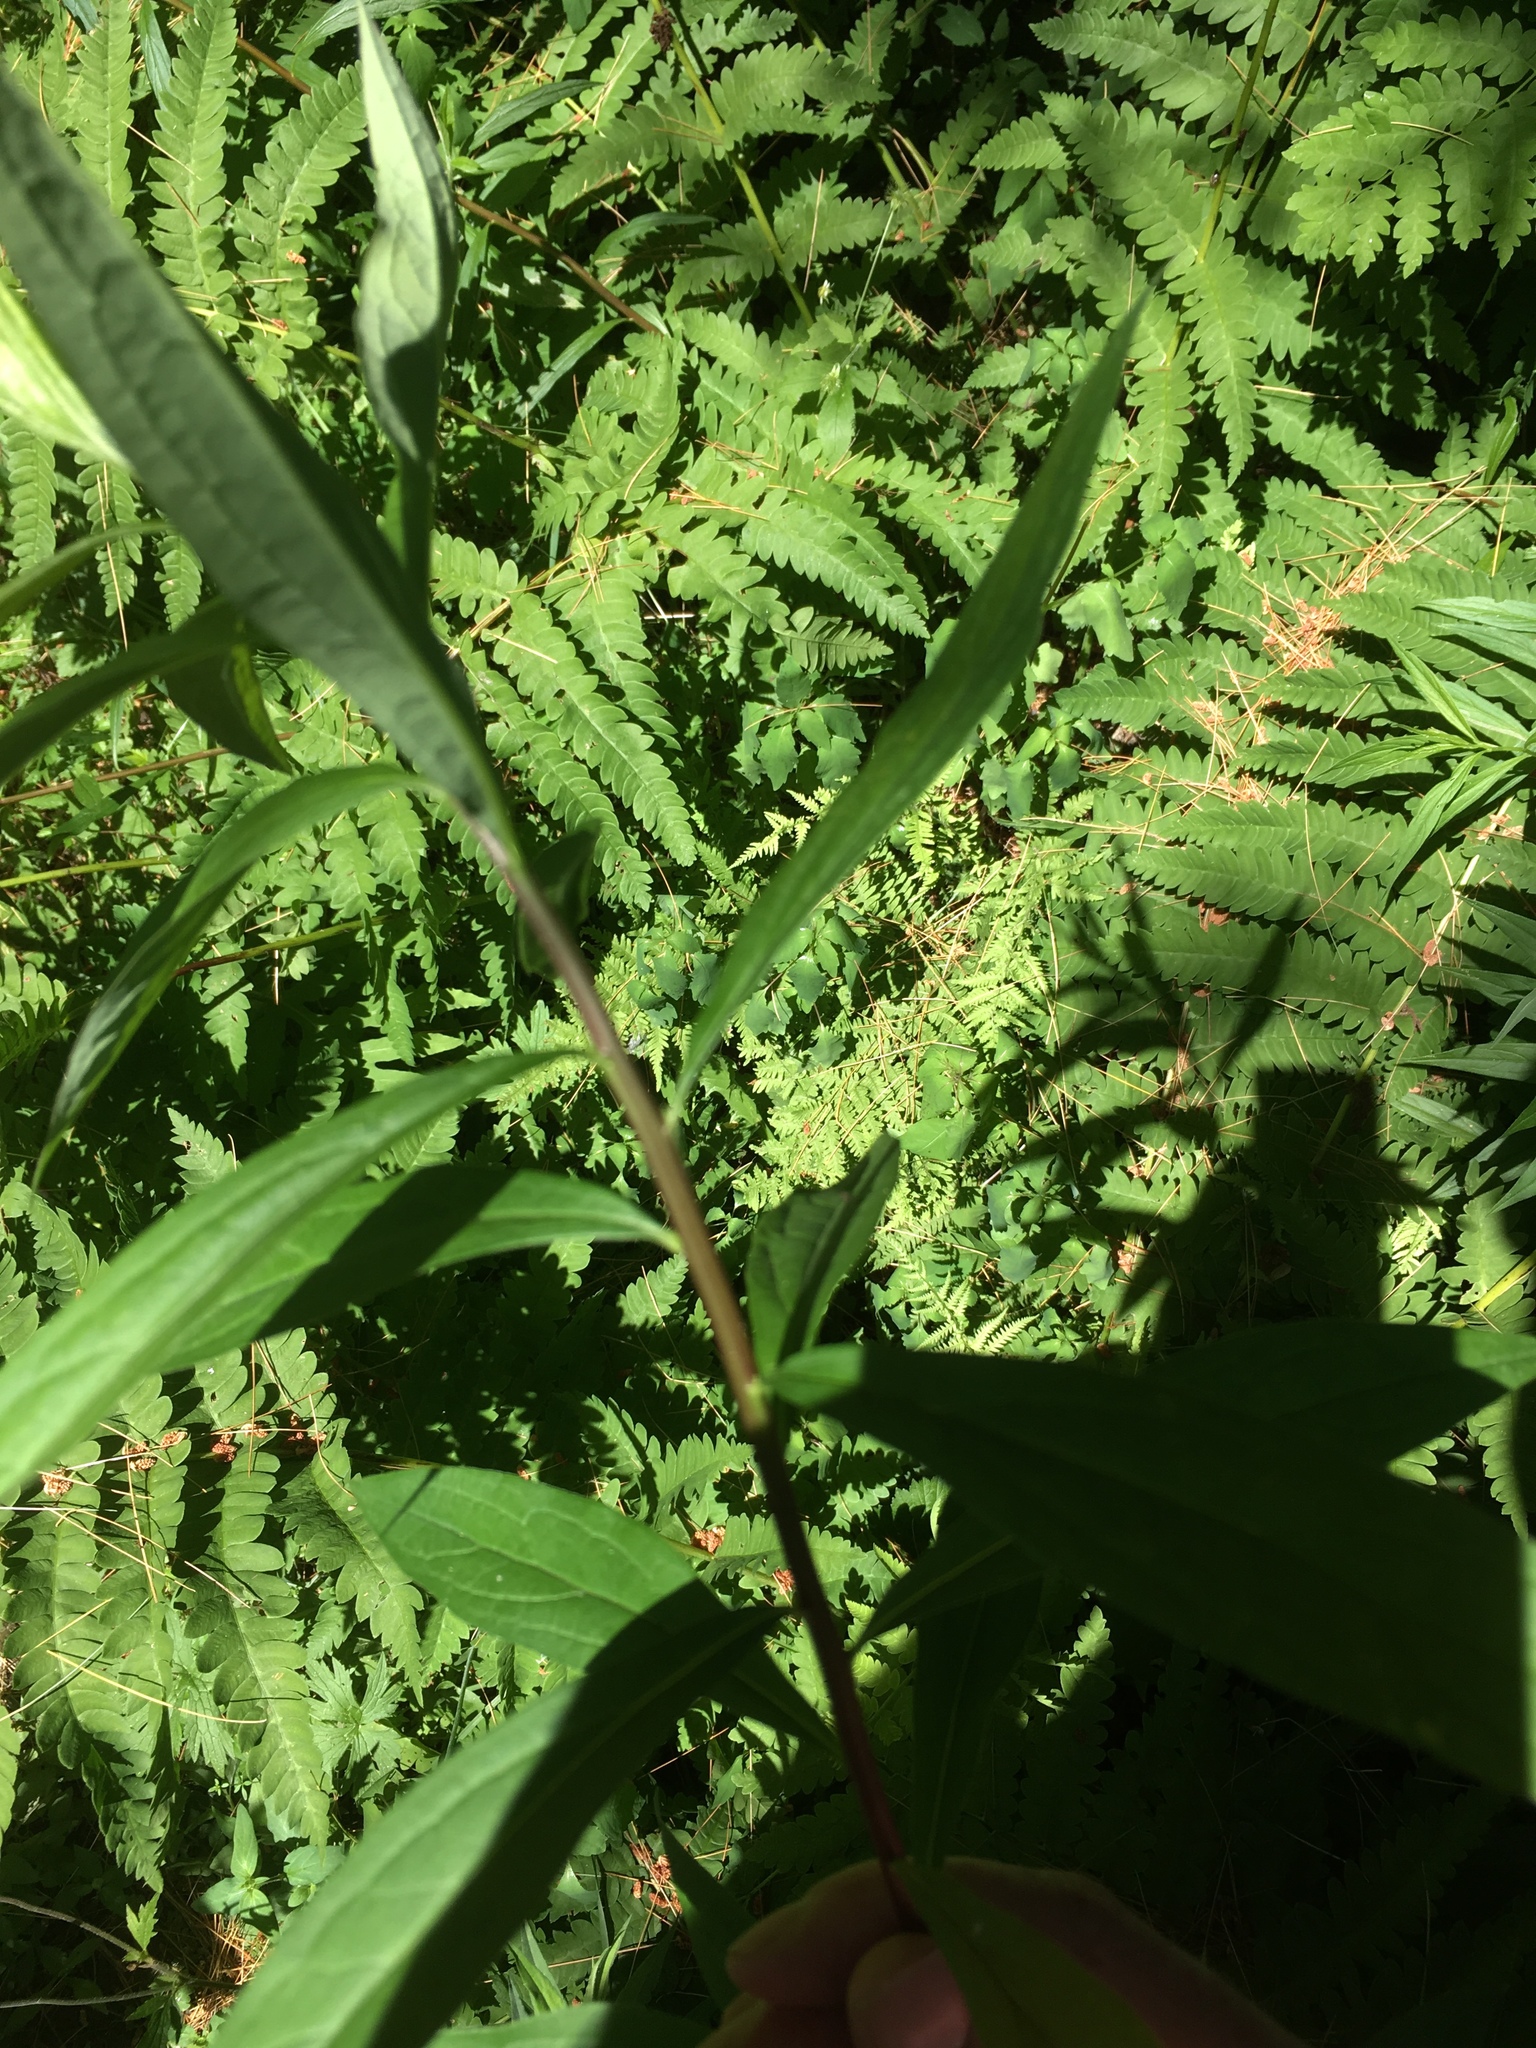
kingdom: Plantae
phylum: Tracheophyta
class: Magnoliopsida
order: Asterales
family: Asteraceae
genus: Solidago
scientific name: Solidago gigantea
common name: Giant goldenrod
